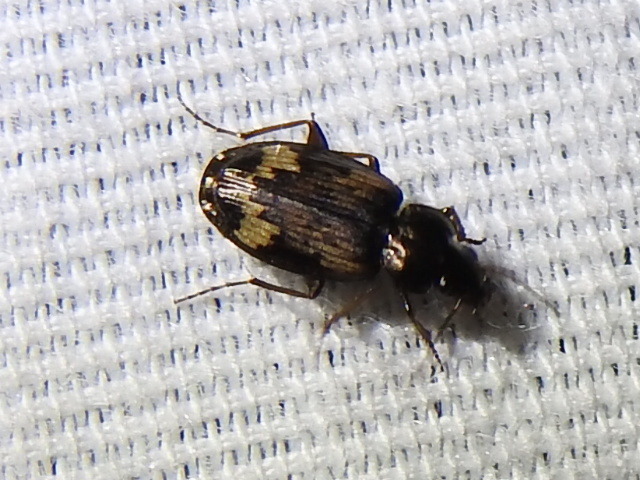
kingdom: Animalia
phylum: Arthropoda
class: Insecta
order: Coleoptera
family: Carabidae
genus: Tetragonoderus
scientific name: Tetragonoderus intersectus
